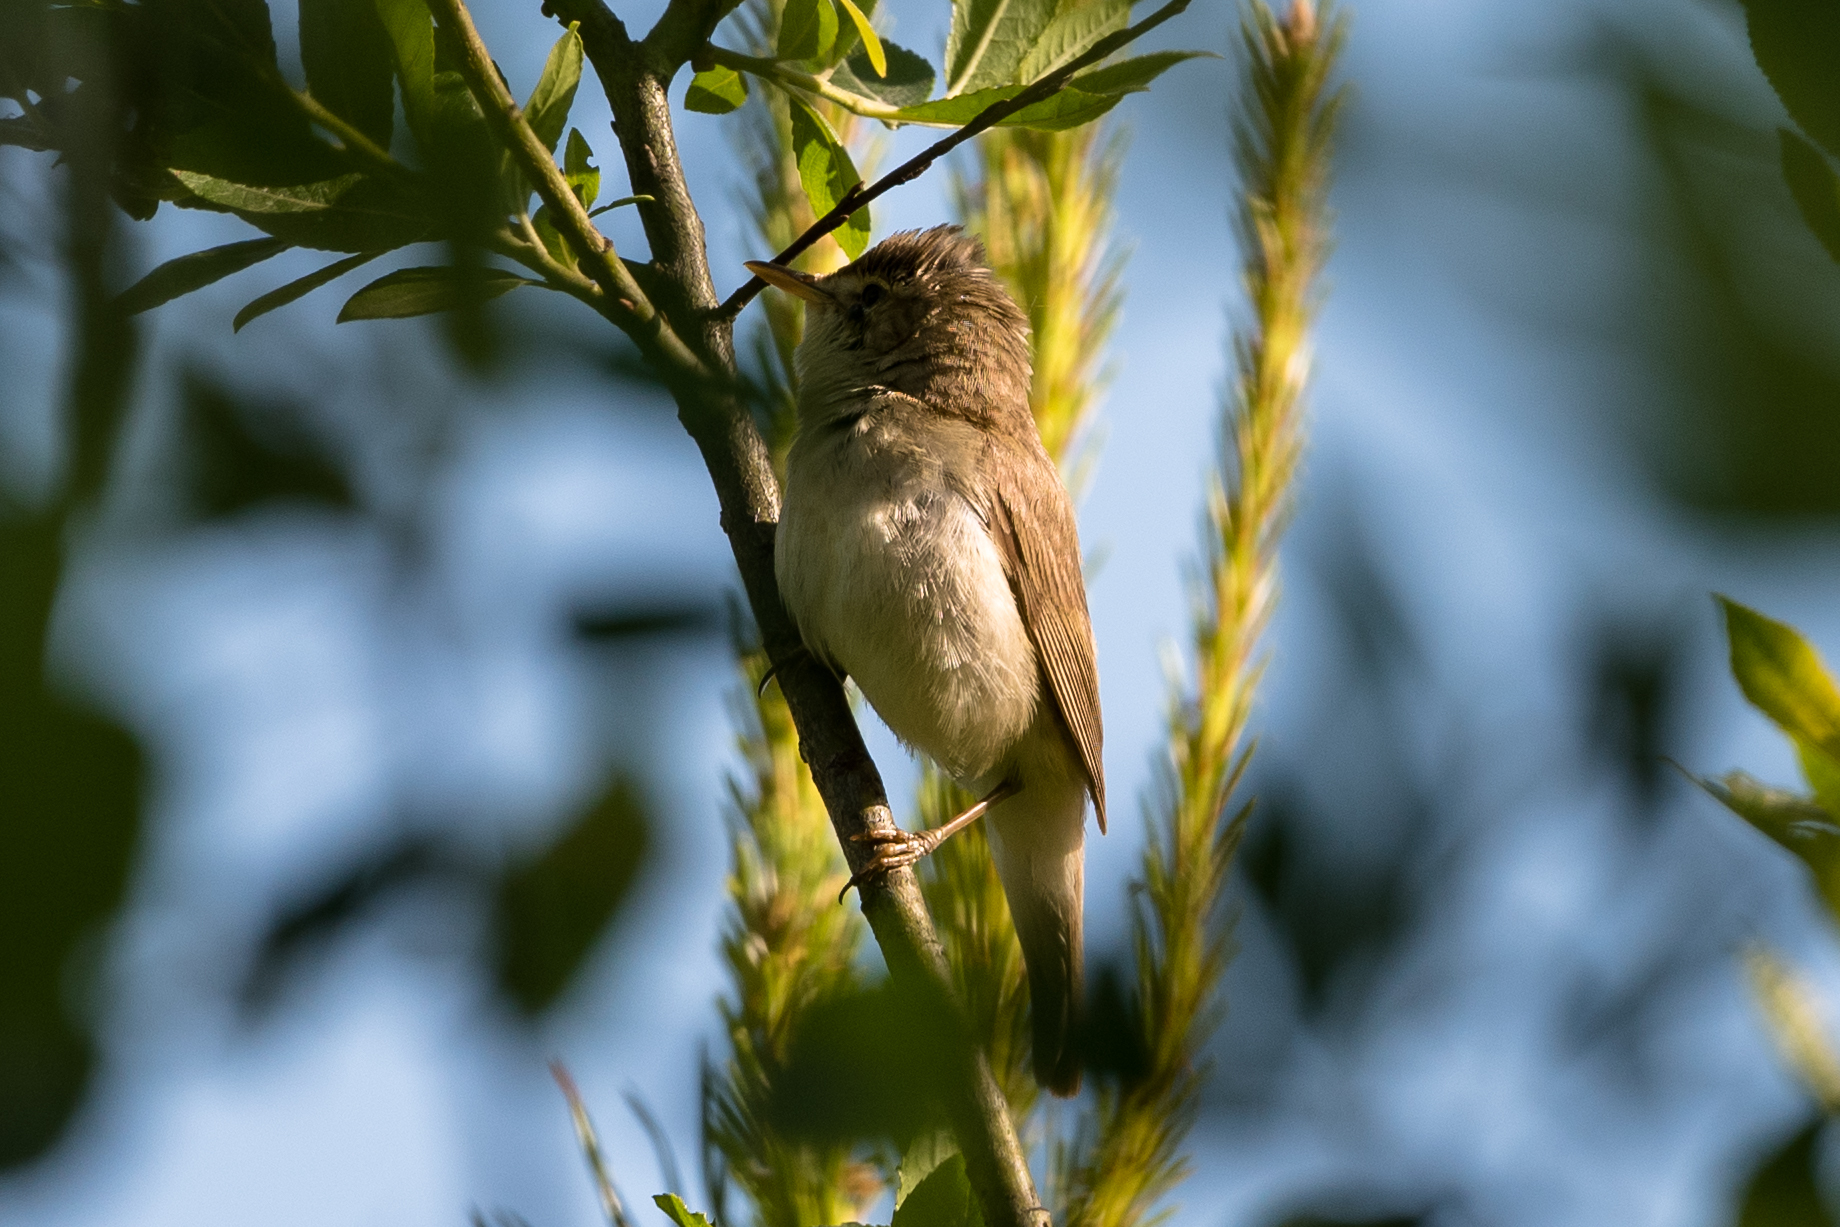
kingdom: Animalia
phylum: Chordata
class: Aves
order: Passeriformes
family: Acrocephalidae
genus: Acrocephalus
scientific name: Acrocephalus dumetorum
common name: Blyth's reed warbler
